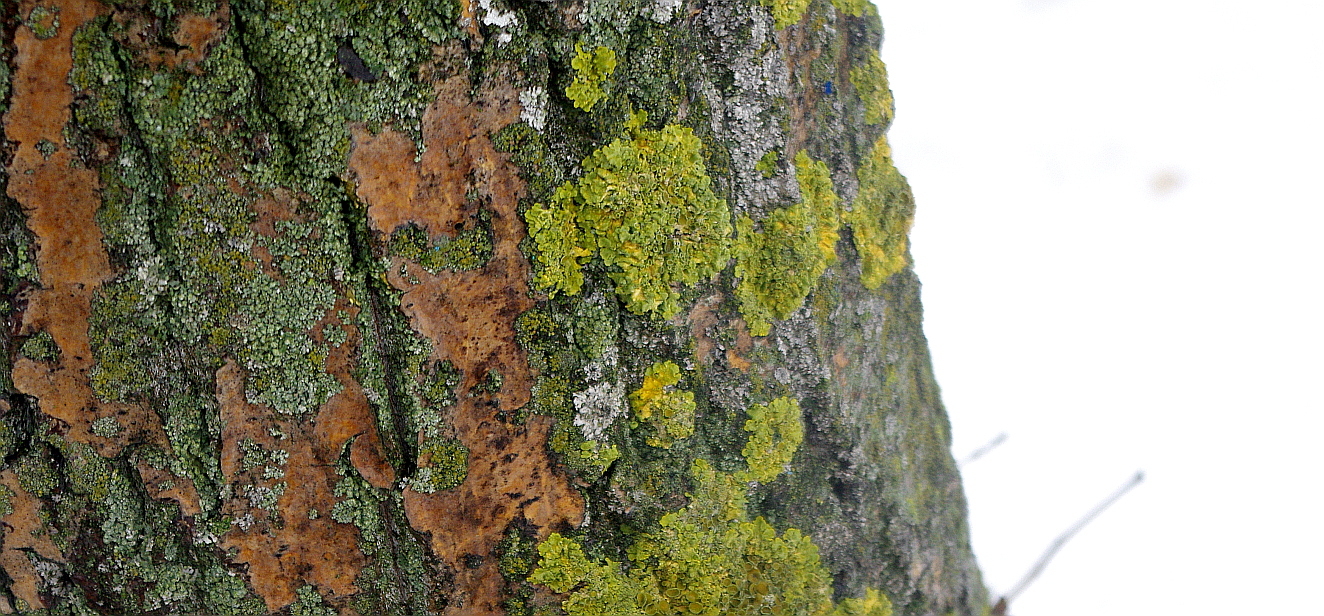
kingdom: Fungi
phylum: Ascomycota
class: Lecanoromycetes
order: Teloschistales
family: Teloschistaceae
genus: Xanthoria
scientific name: Xanthoria parietina
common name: Common orange lichen
